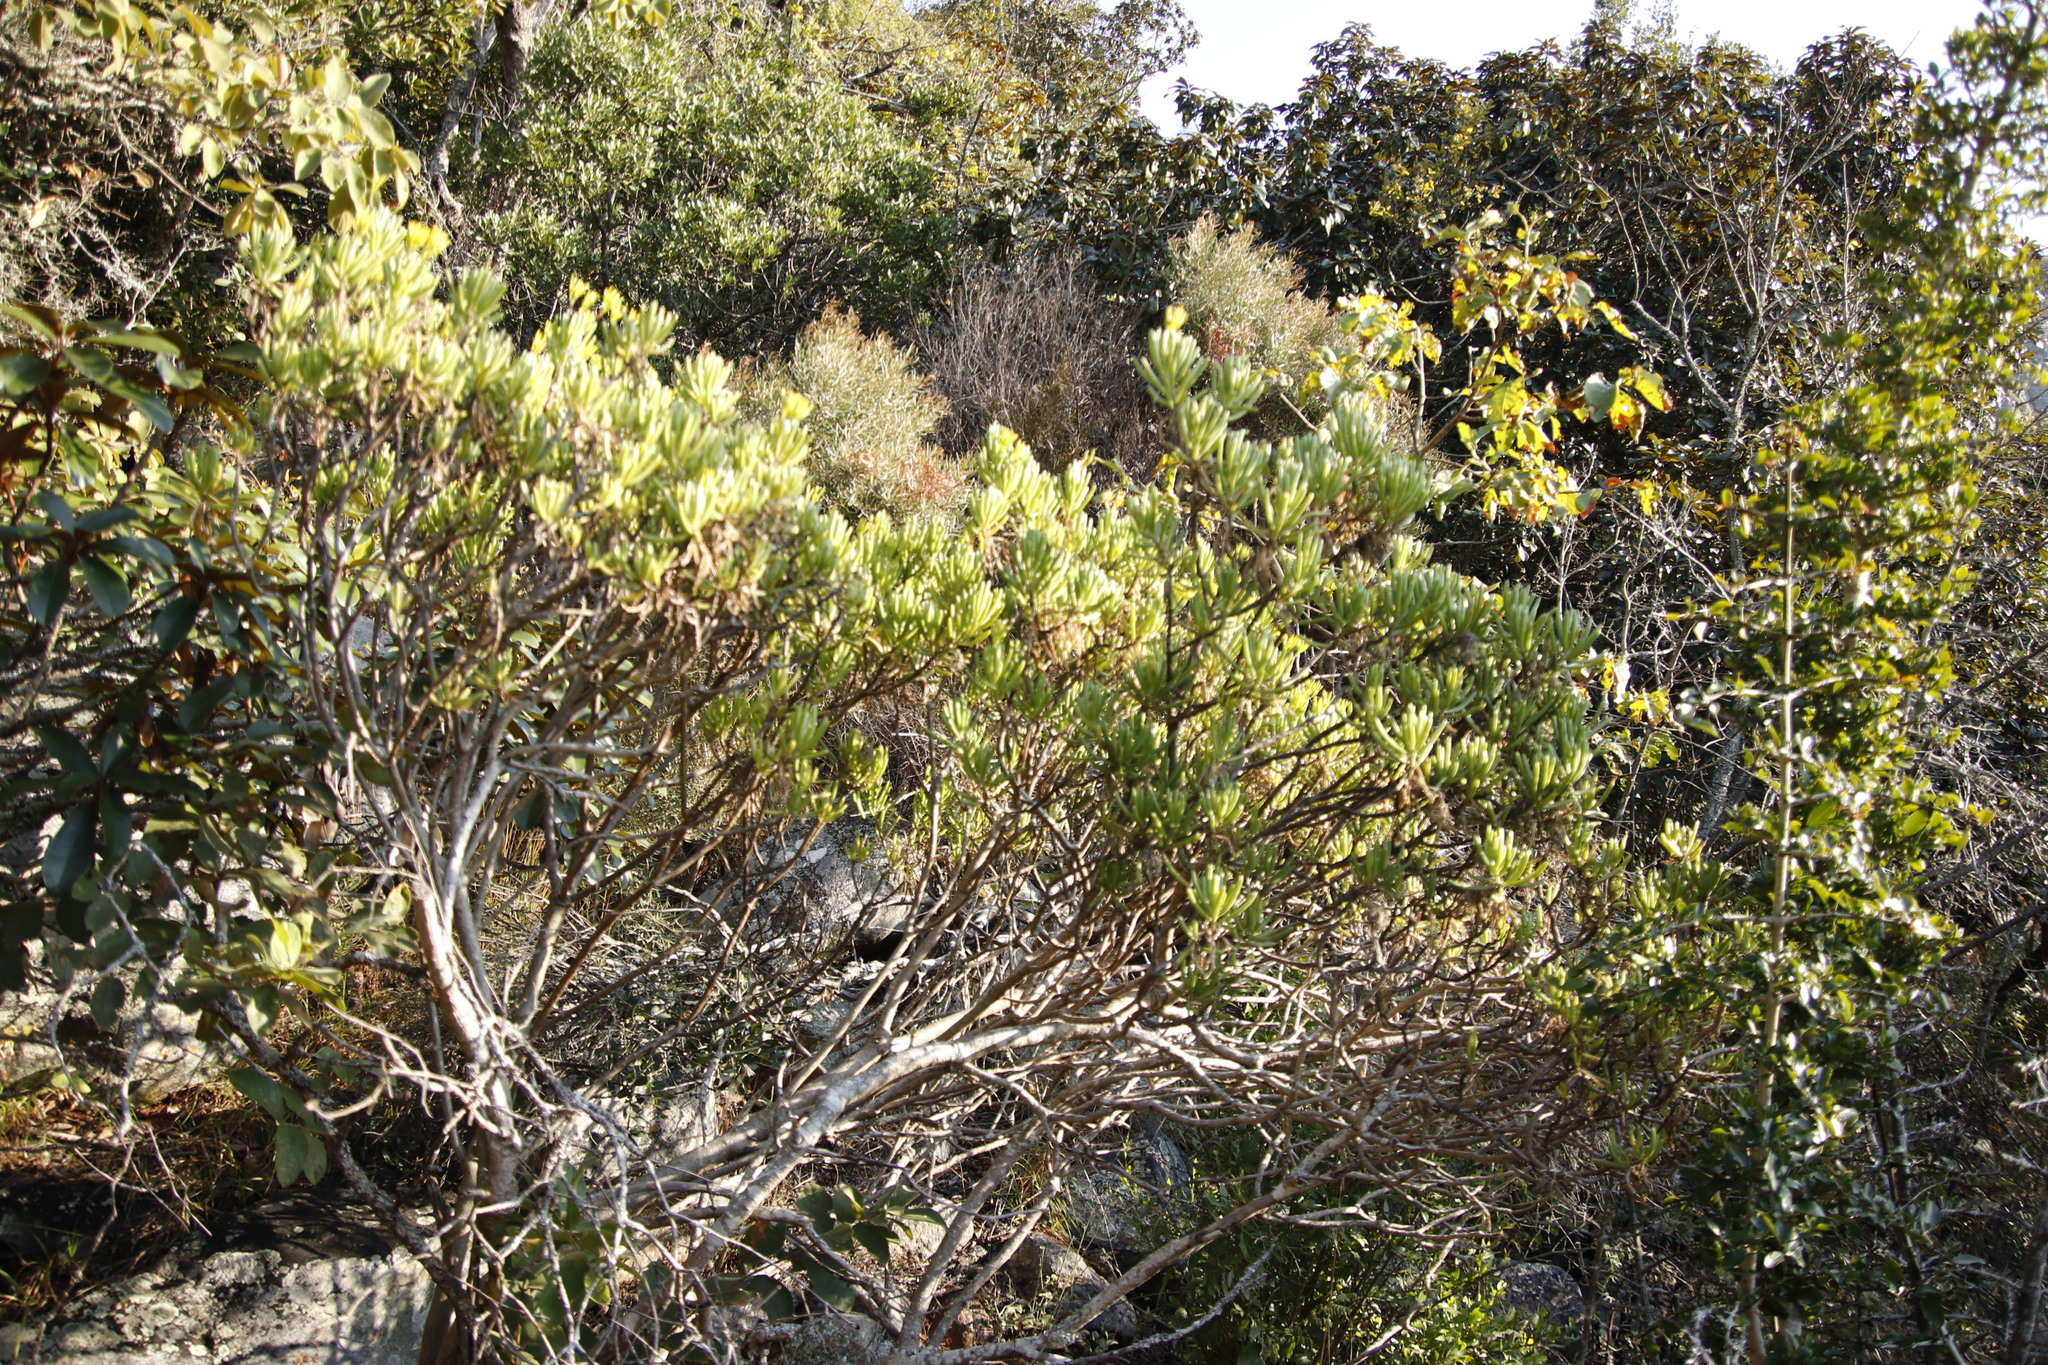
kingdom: Plantae
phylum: Tracheophyta
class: Magnoliopsida
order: Asterales
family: Asteraceae
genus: Kleinia
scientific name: Kleinia barbertonica
